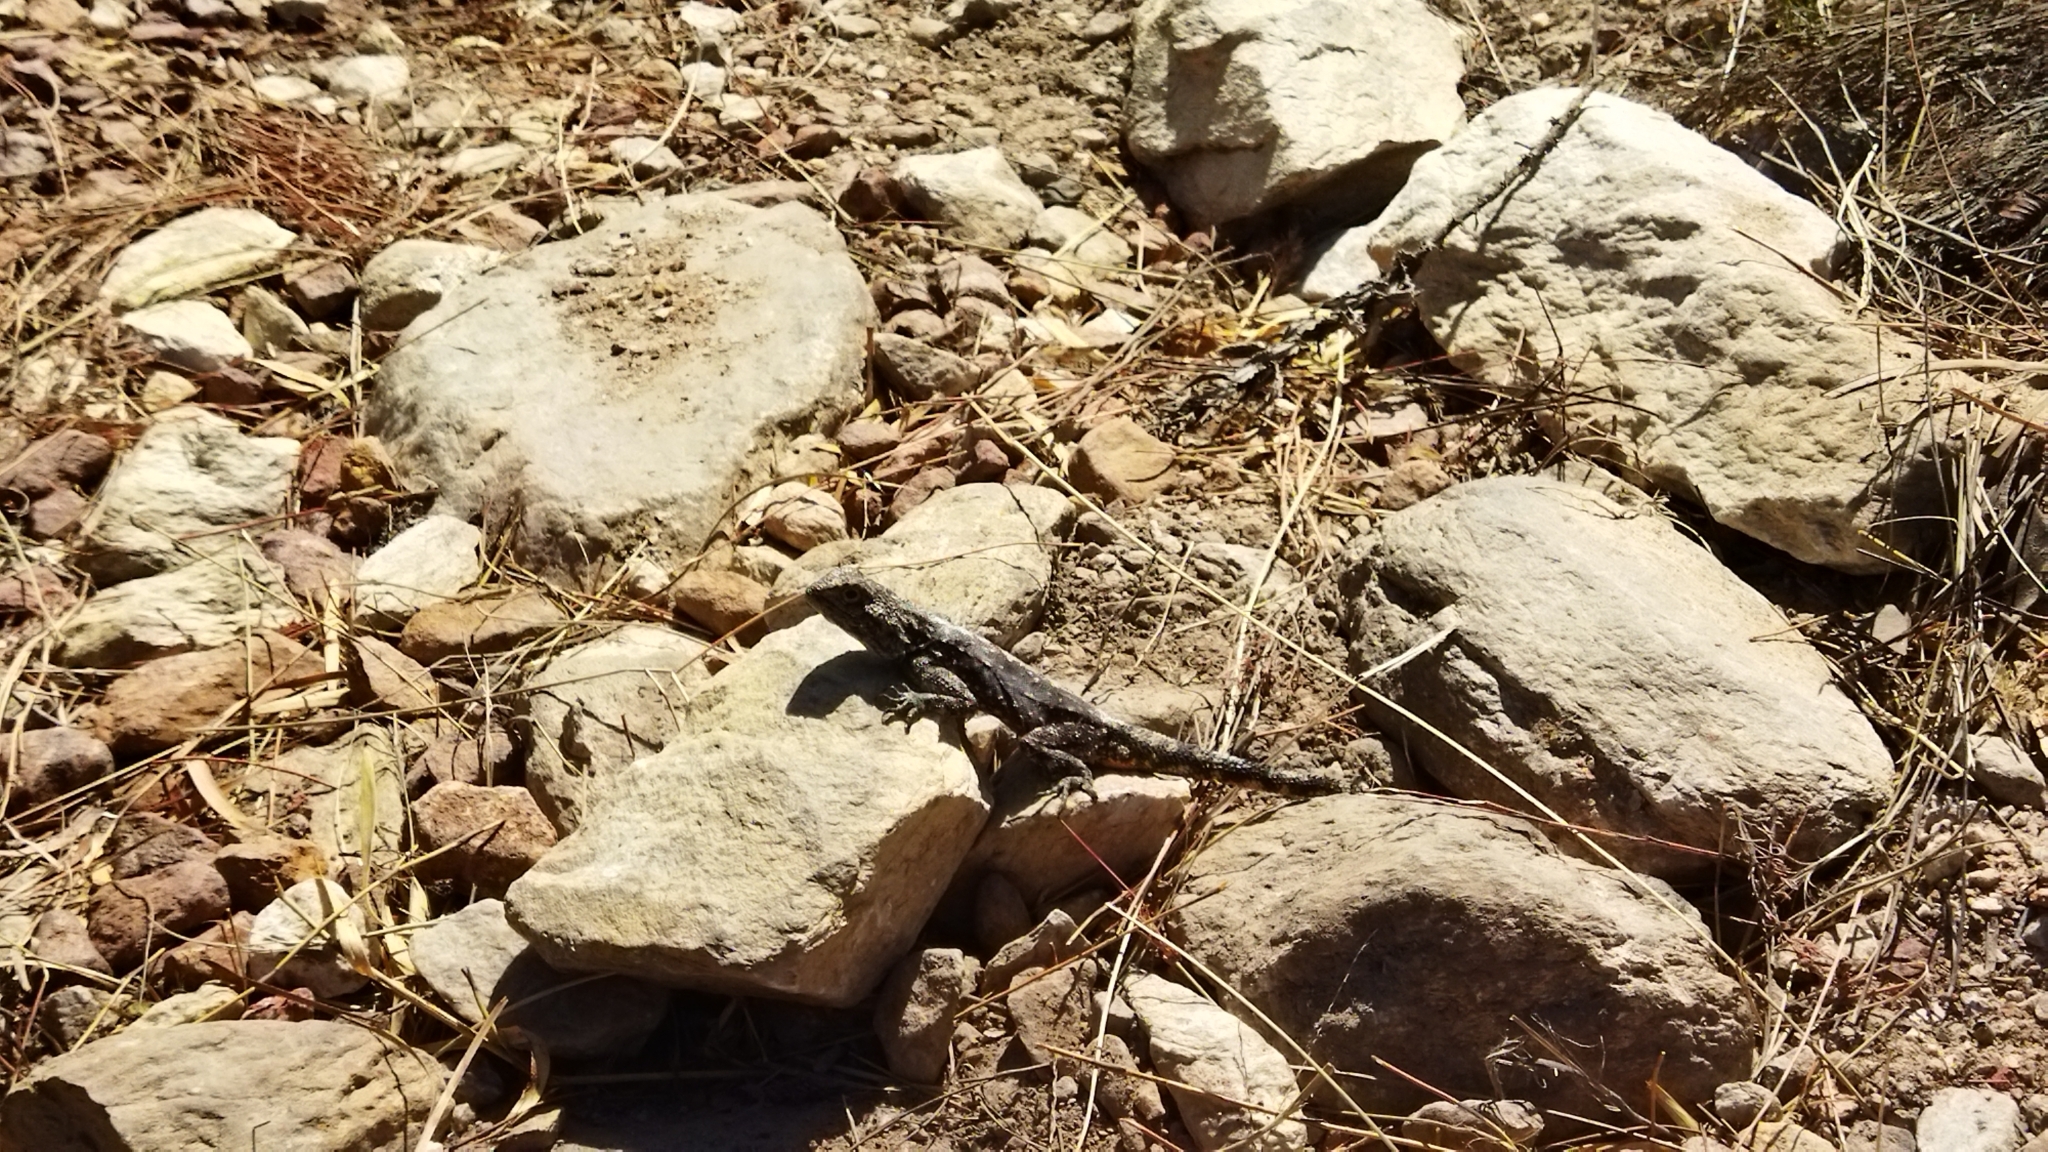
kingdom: Animalia
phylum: Chordata
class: Squamata
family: Agamidae
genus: Agama
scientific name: Agama atra
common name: Southern african rock agama
